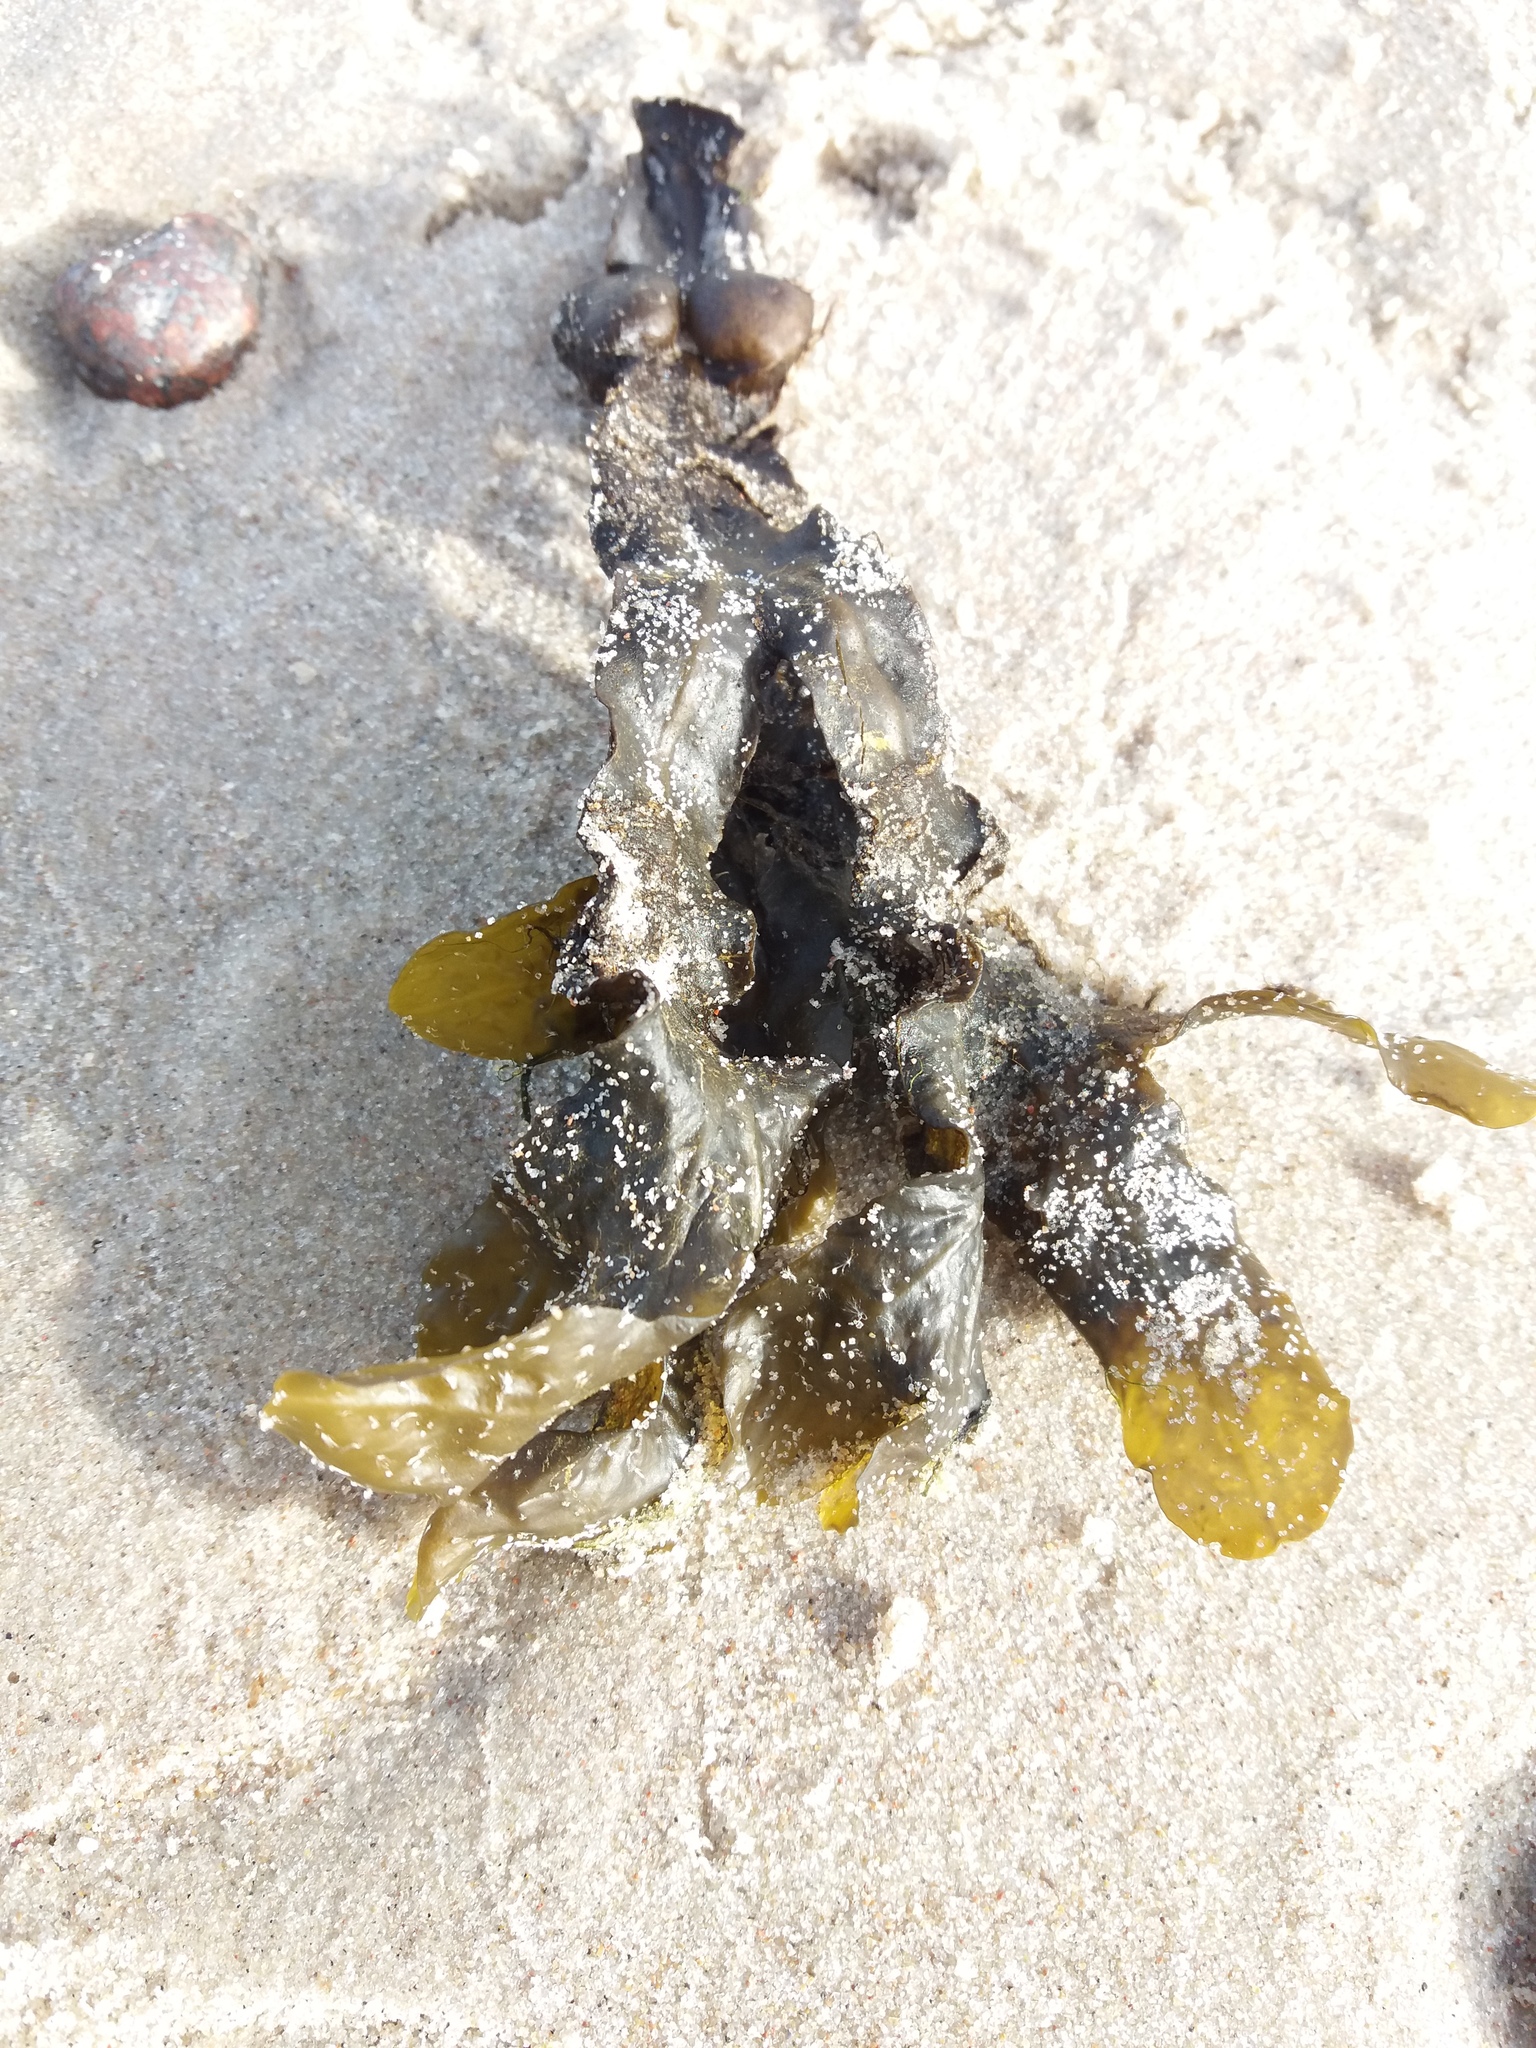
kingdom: Chromista
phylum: Ochrophyta
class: Phaeophyceae
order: Fucales
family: Fucaceae
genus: Fucus
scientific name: Fucus vesiculosus
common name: Bladder wrack
